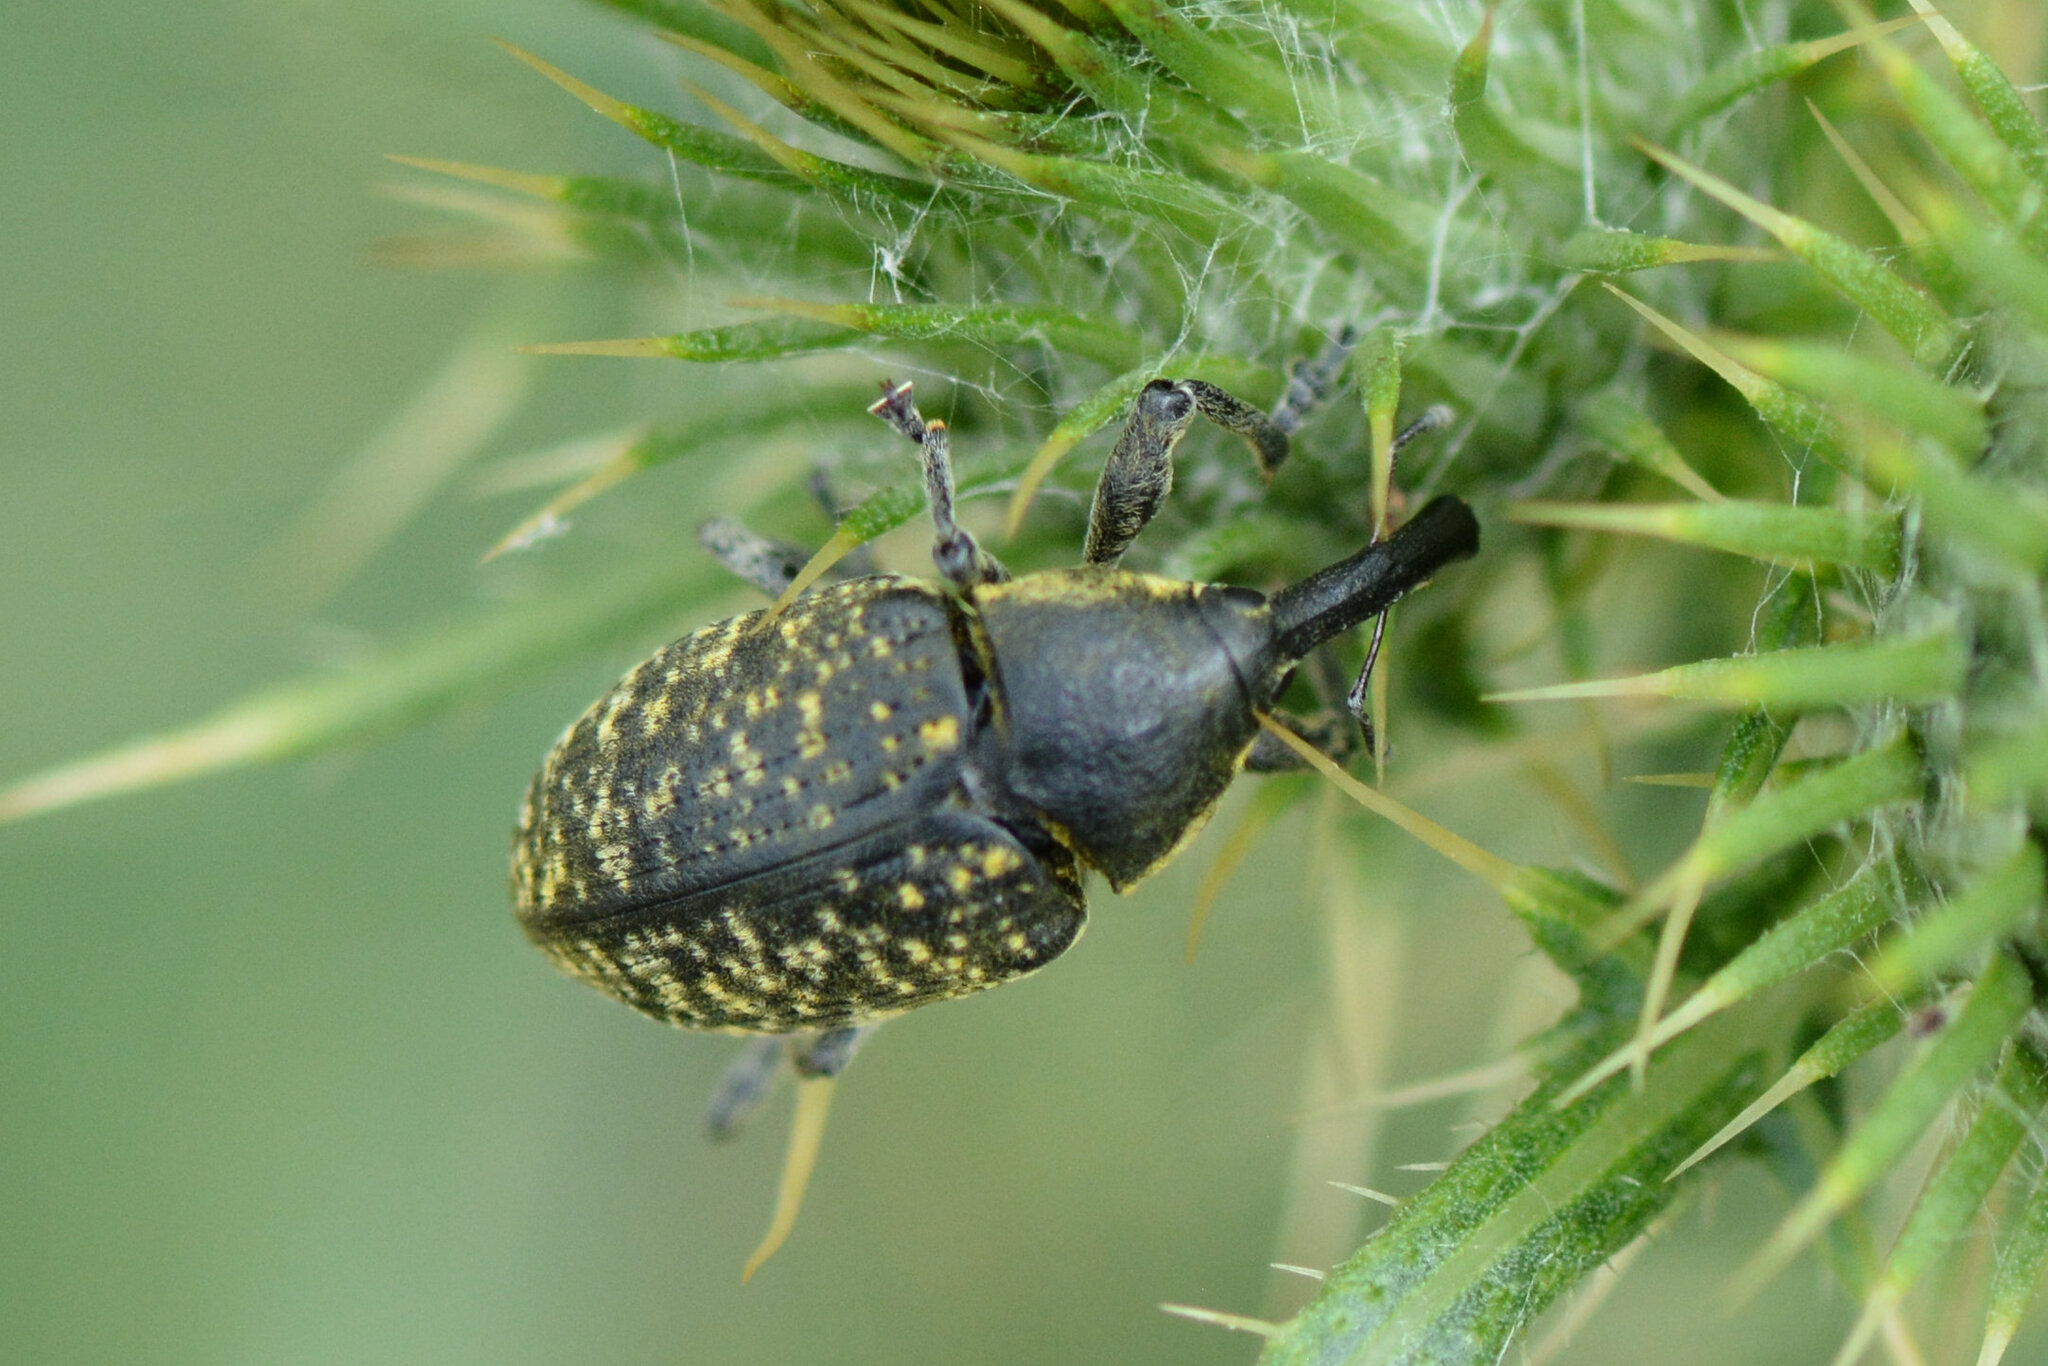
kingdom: Animalia
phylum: Arthropoda
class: Insecta
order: Coleoptera
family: Curculionidae
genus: Larinus
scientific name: Larinus sturnus
